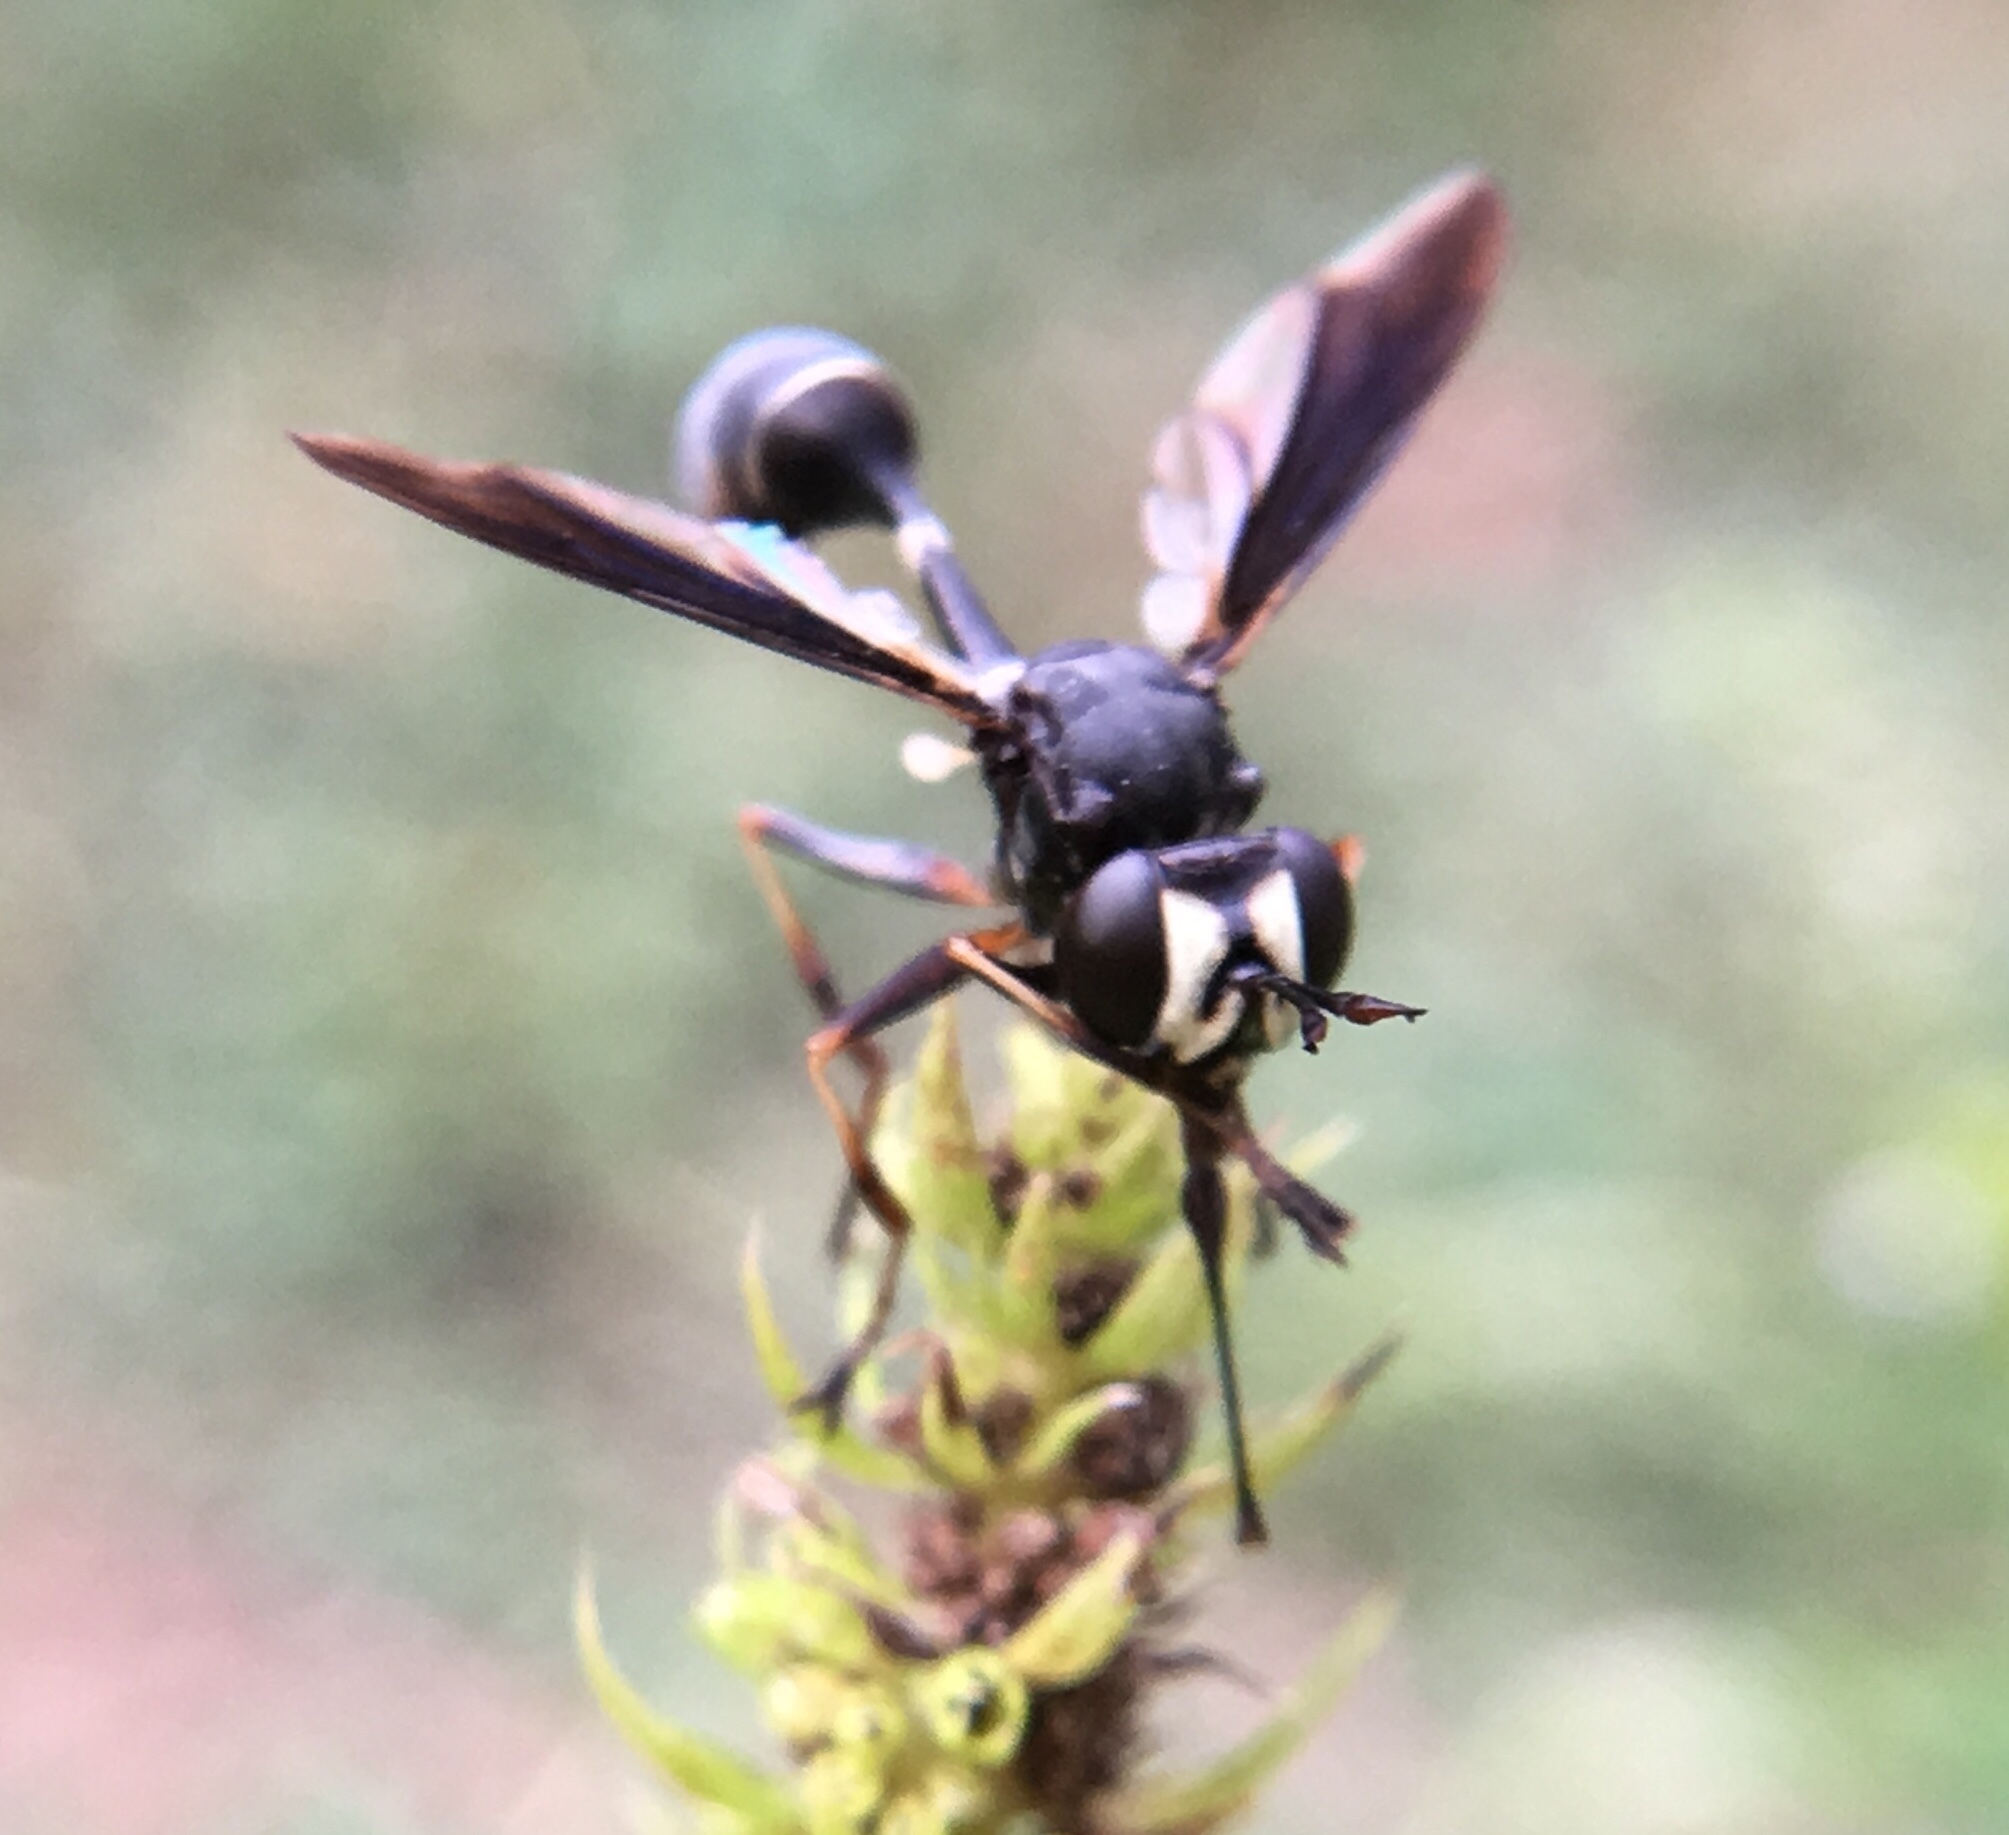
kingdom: Animalia
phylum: Arthropoda
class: Insecta
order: Diptera
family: Conopidae
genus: Physocephala
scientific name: Physocephala tibialis
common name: Common eastern physocephala
